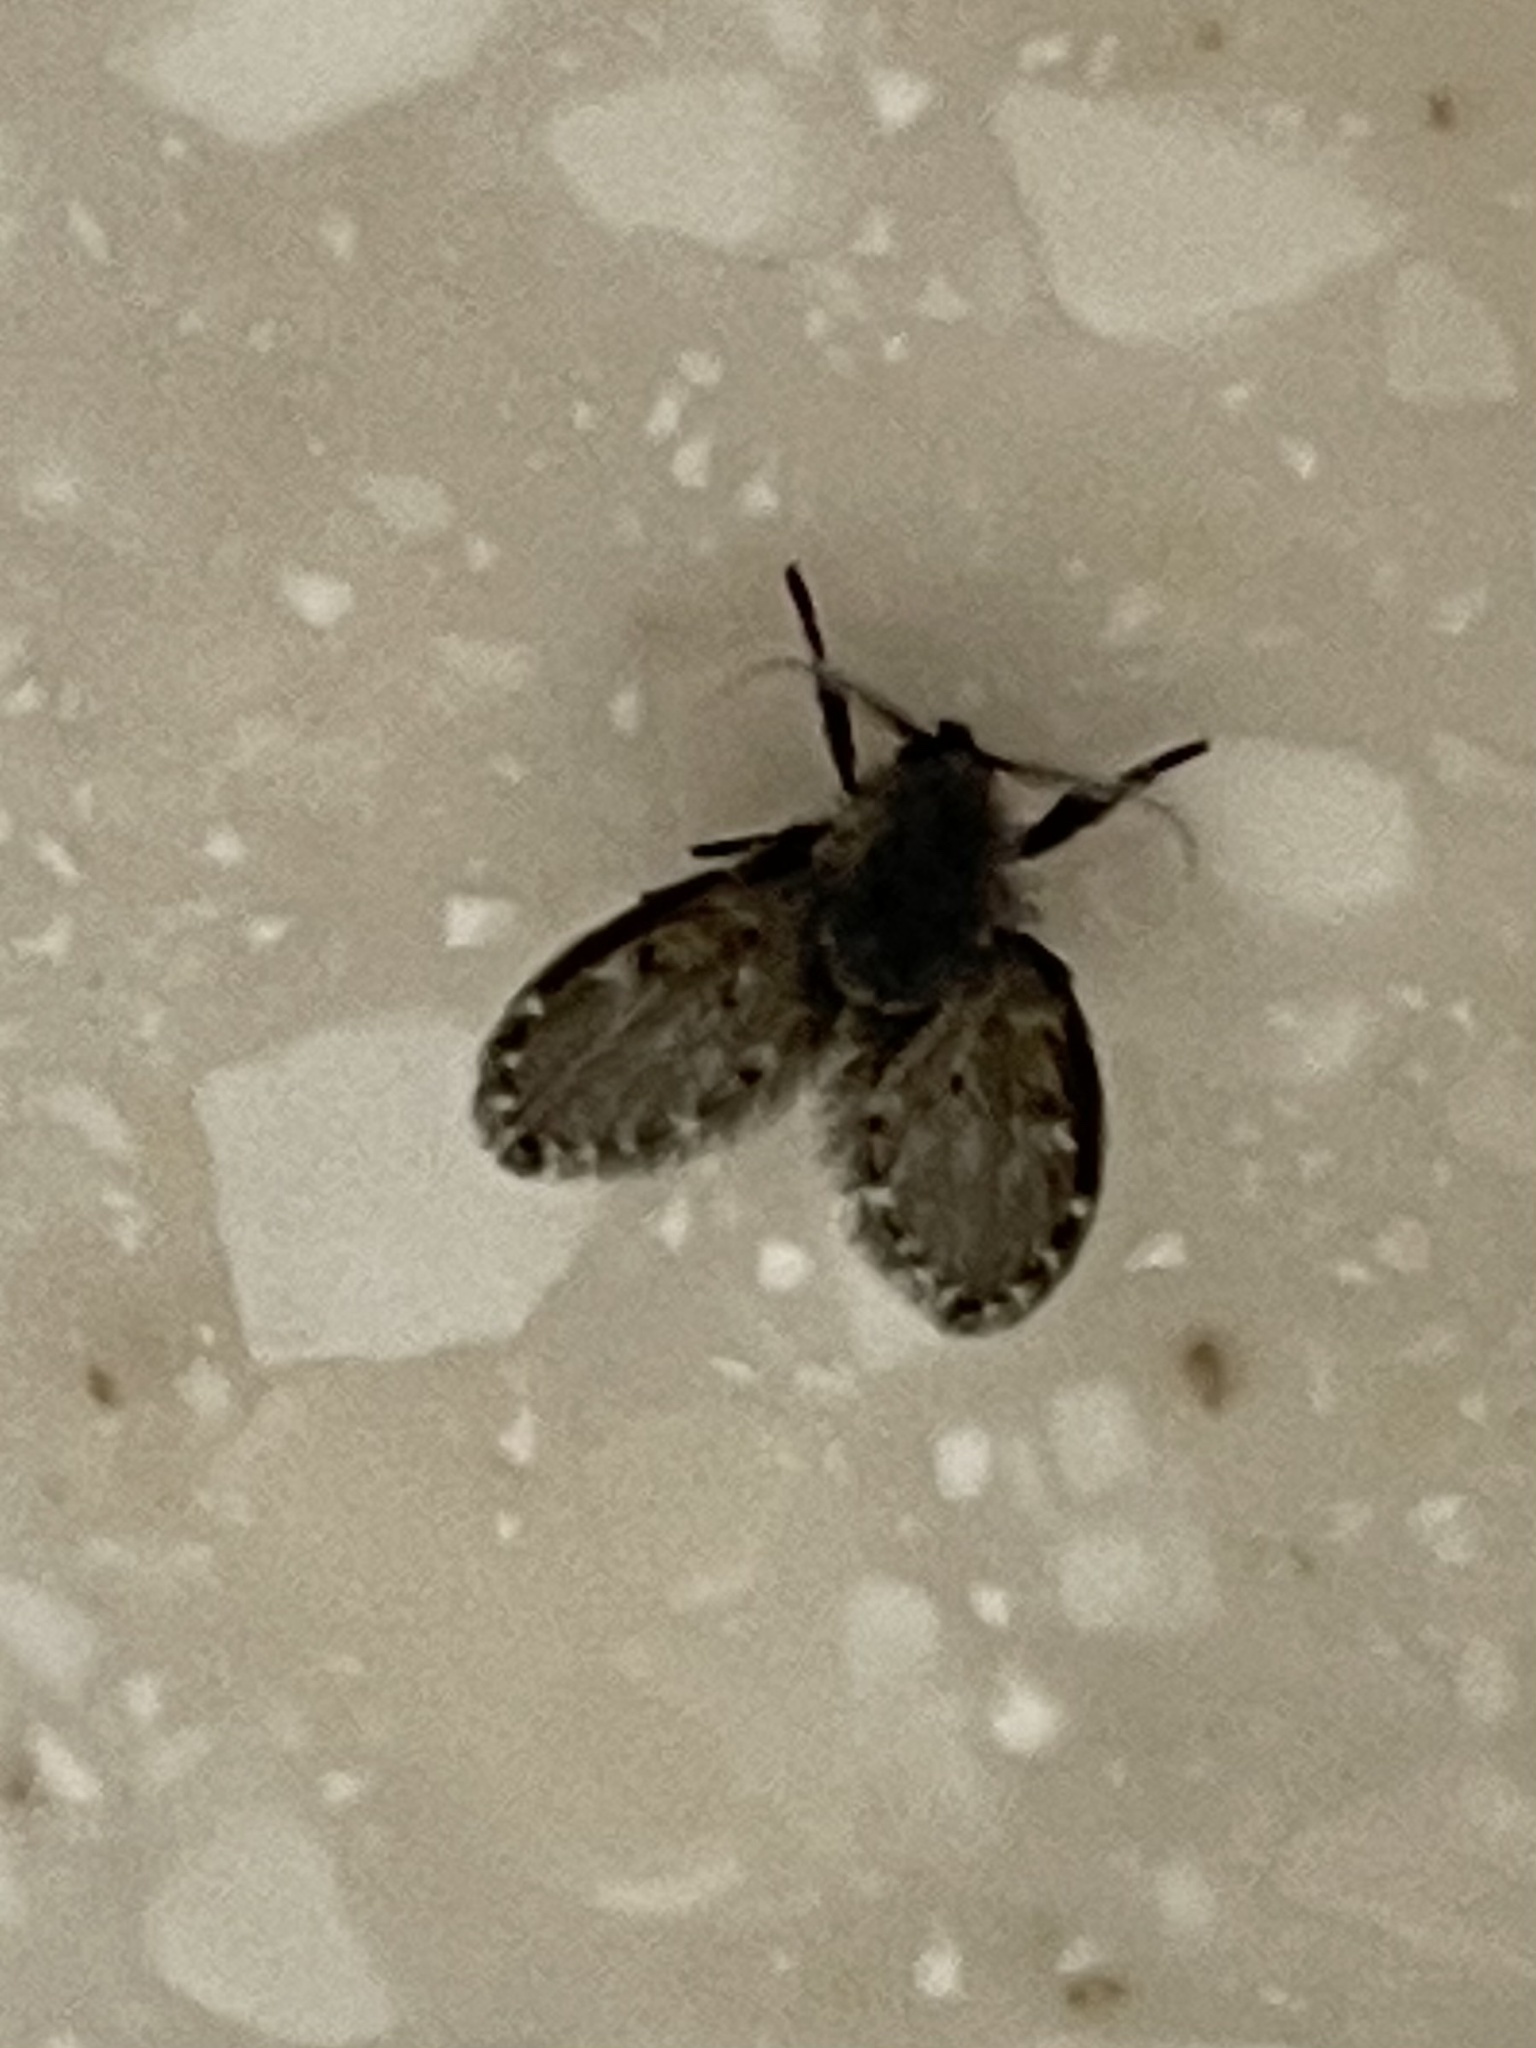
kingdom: Animalia
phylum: Arthropoda
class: Insecta
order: Diptera
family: Psychodidae
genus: Clogmia
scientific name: Clogmia albipunctatus
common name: White-spotted moth fly
